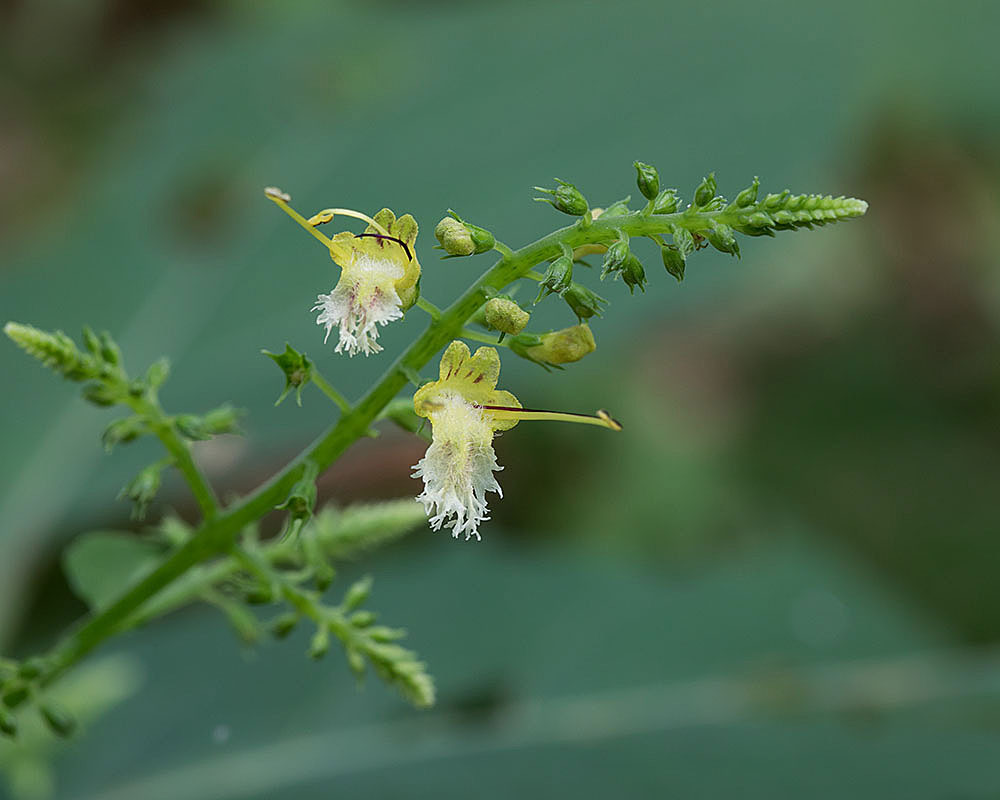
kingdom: Plantae
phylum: Tracheophyta
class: Magnoliopsida
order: Lamiales
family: Lamiaceae
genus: Collinsonia
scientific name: Collinsonia canadensis
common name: Northern horsebalm
